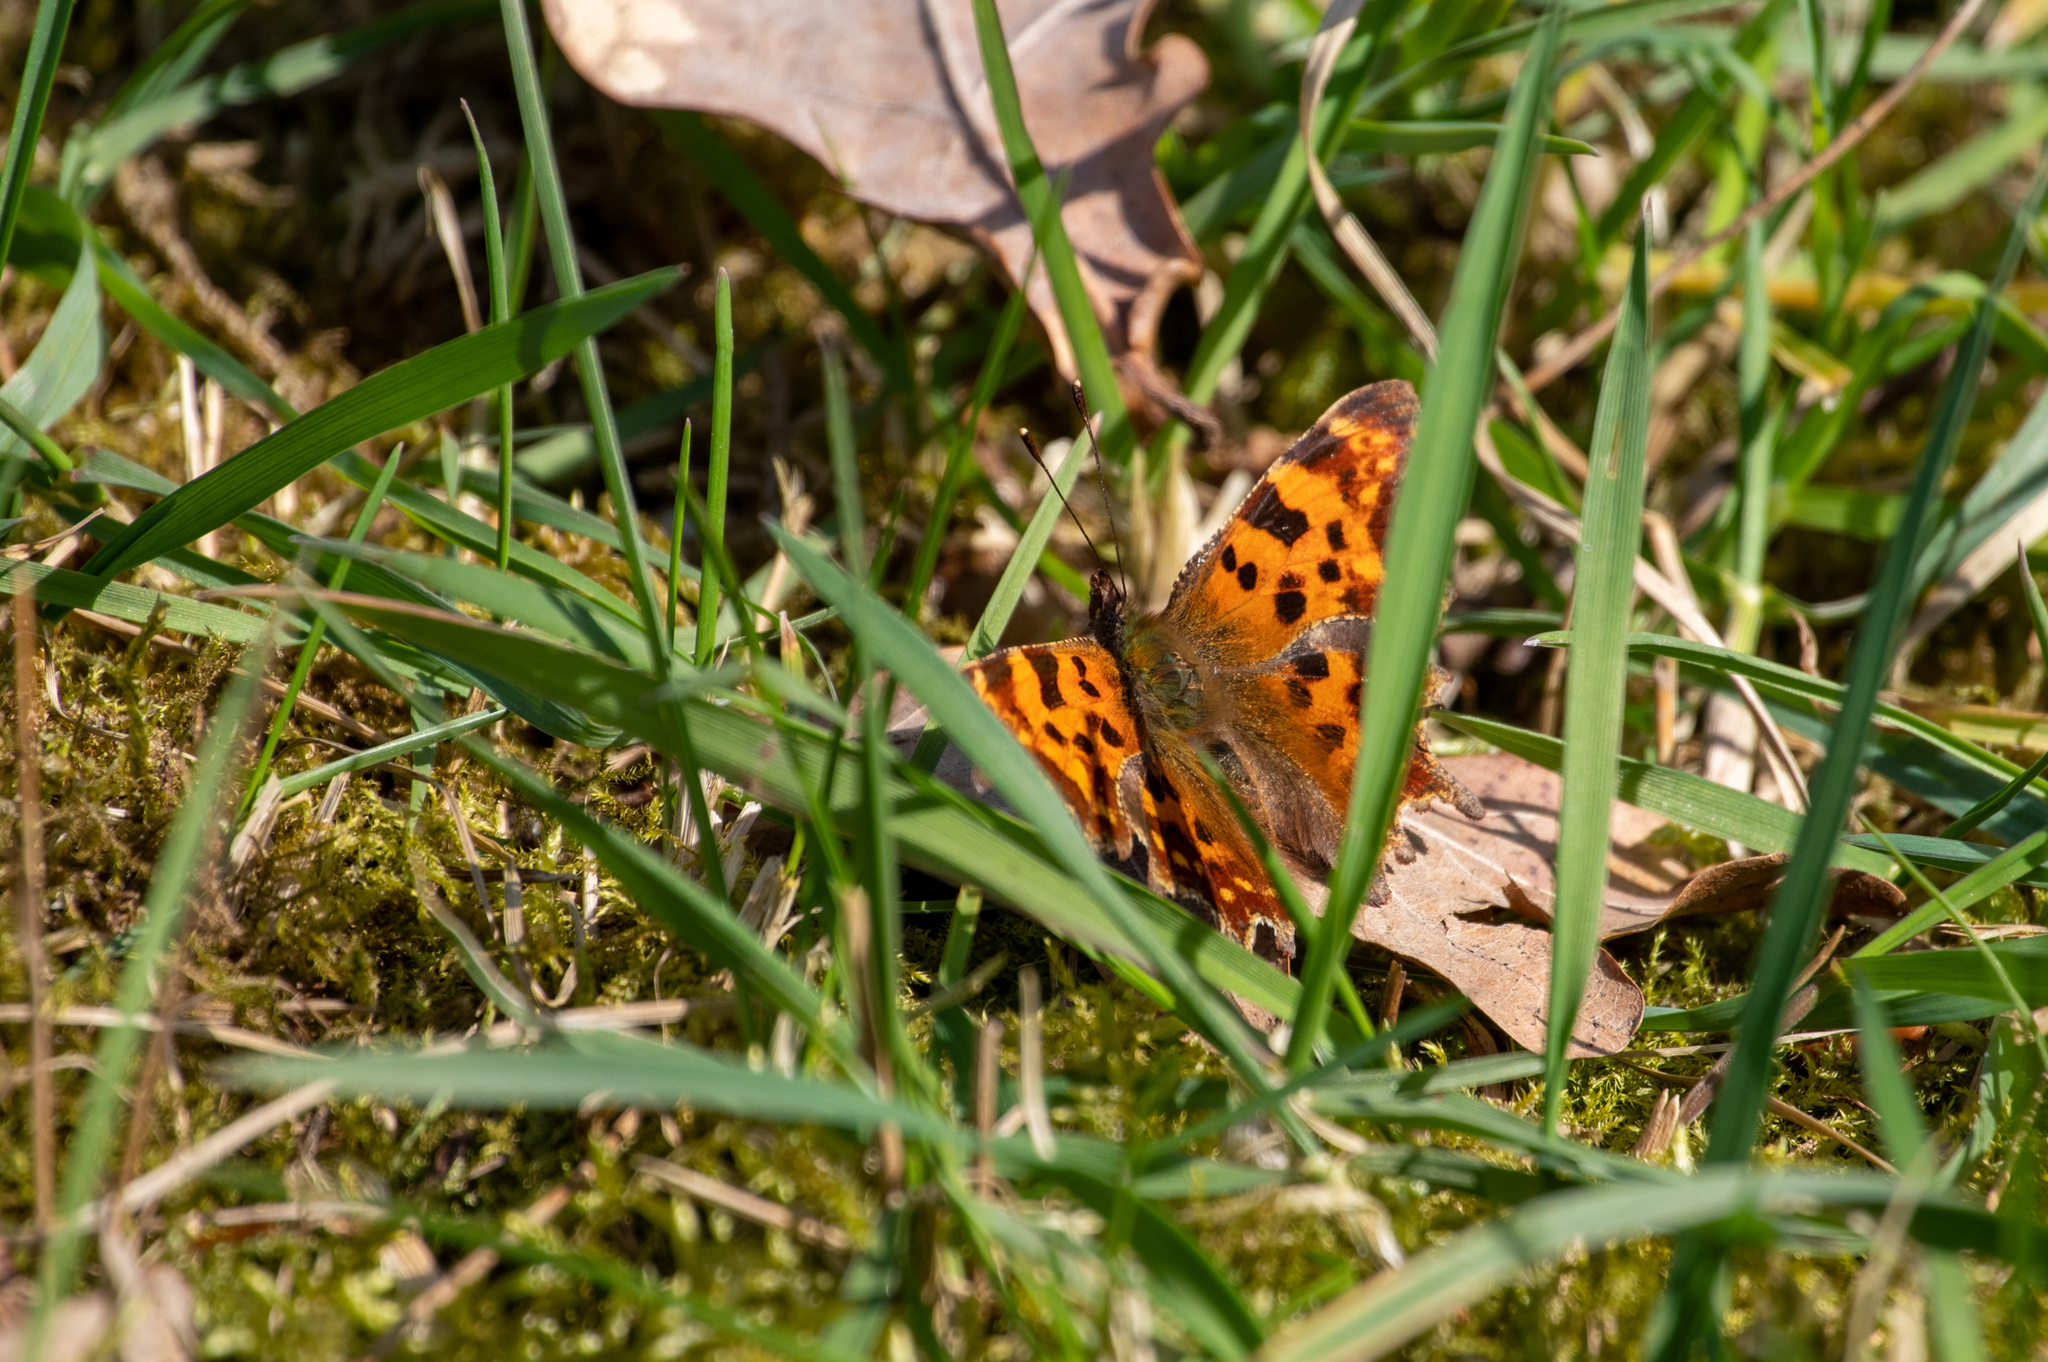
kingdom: Animalia
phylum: Arthropoda
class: Insecta
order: Lepidoptera
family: Nymphalidae
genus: Polygonia
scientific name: Polygonia c-album
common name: Comma
